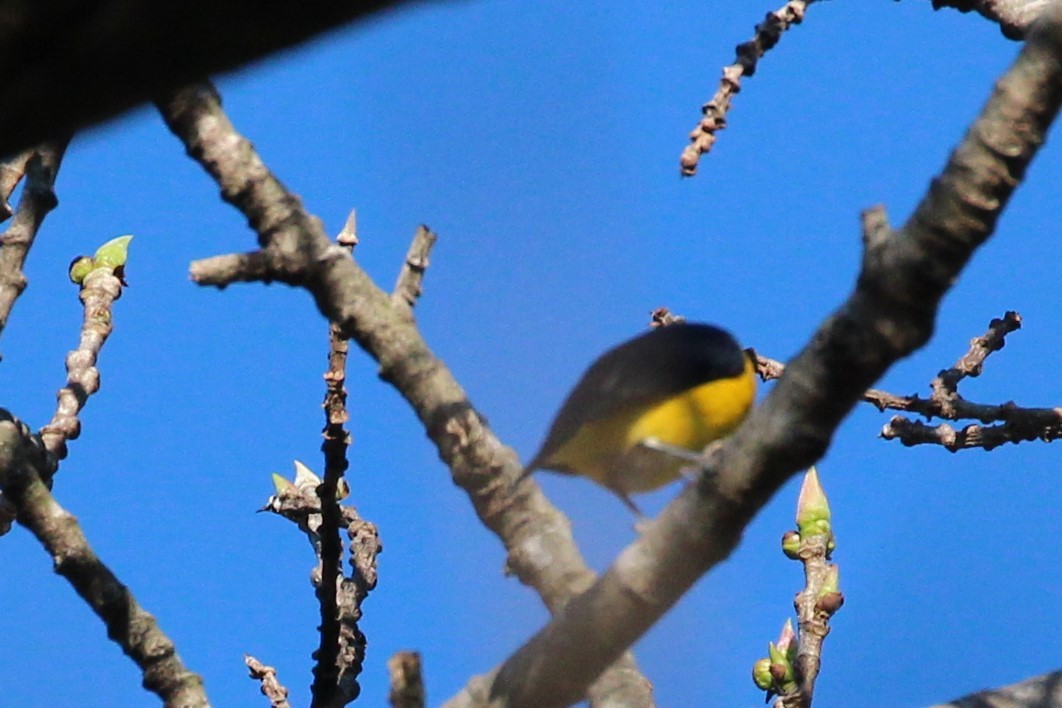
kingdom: Animalia
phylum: Chordata
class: Aves
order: Passeriformes
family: Fringillidae
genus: Euphonia
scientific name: Euphonia hirundinacea
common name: Yellow-throated euphonia
